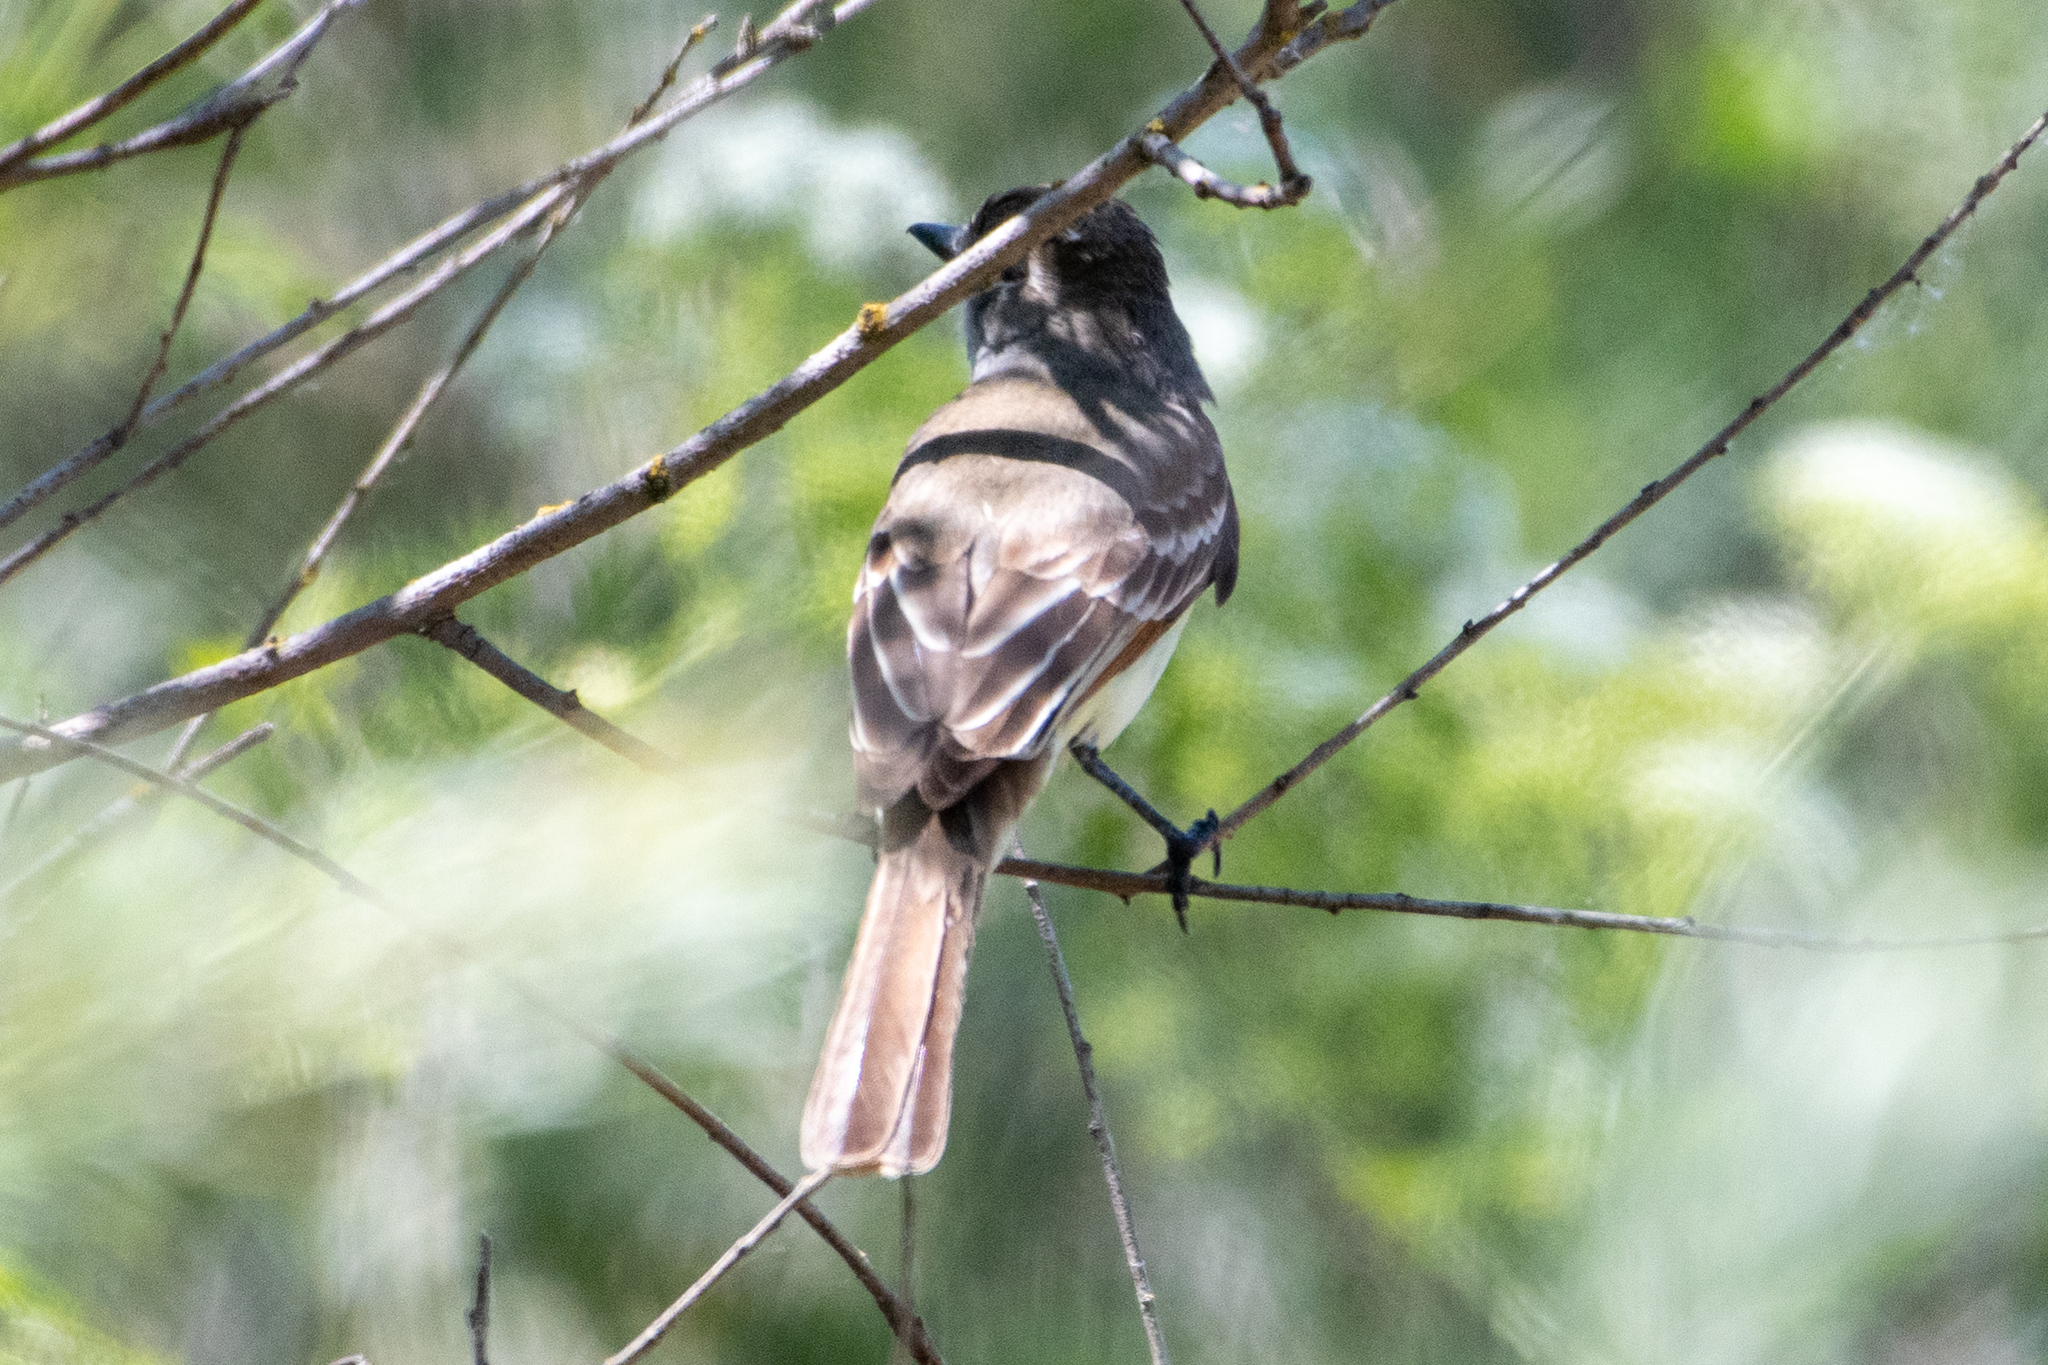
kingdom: Animalia
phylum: Chordata
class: Aves
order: Passeriformes
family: Tyrannidae
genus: Myiarchus
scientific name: Myiarchus cinerascens
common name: Ash-throated flycatcher
